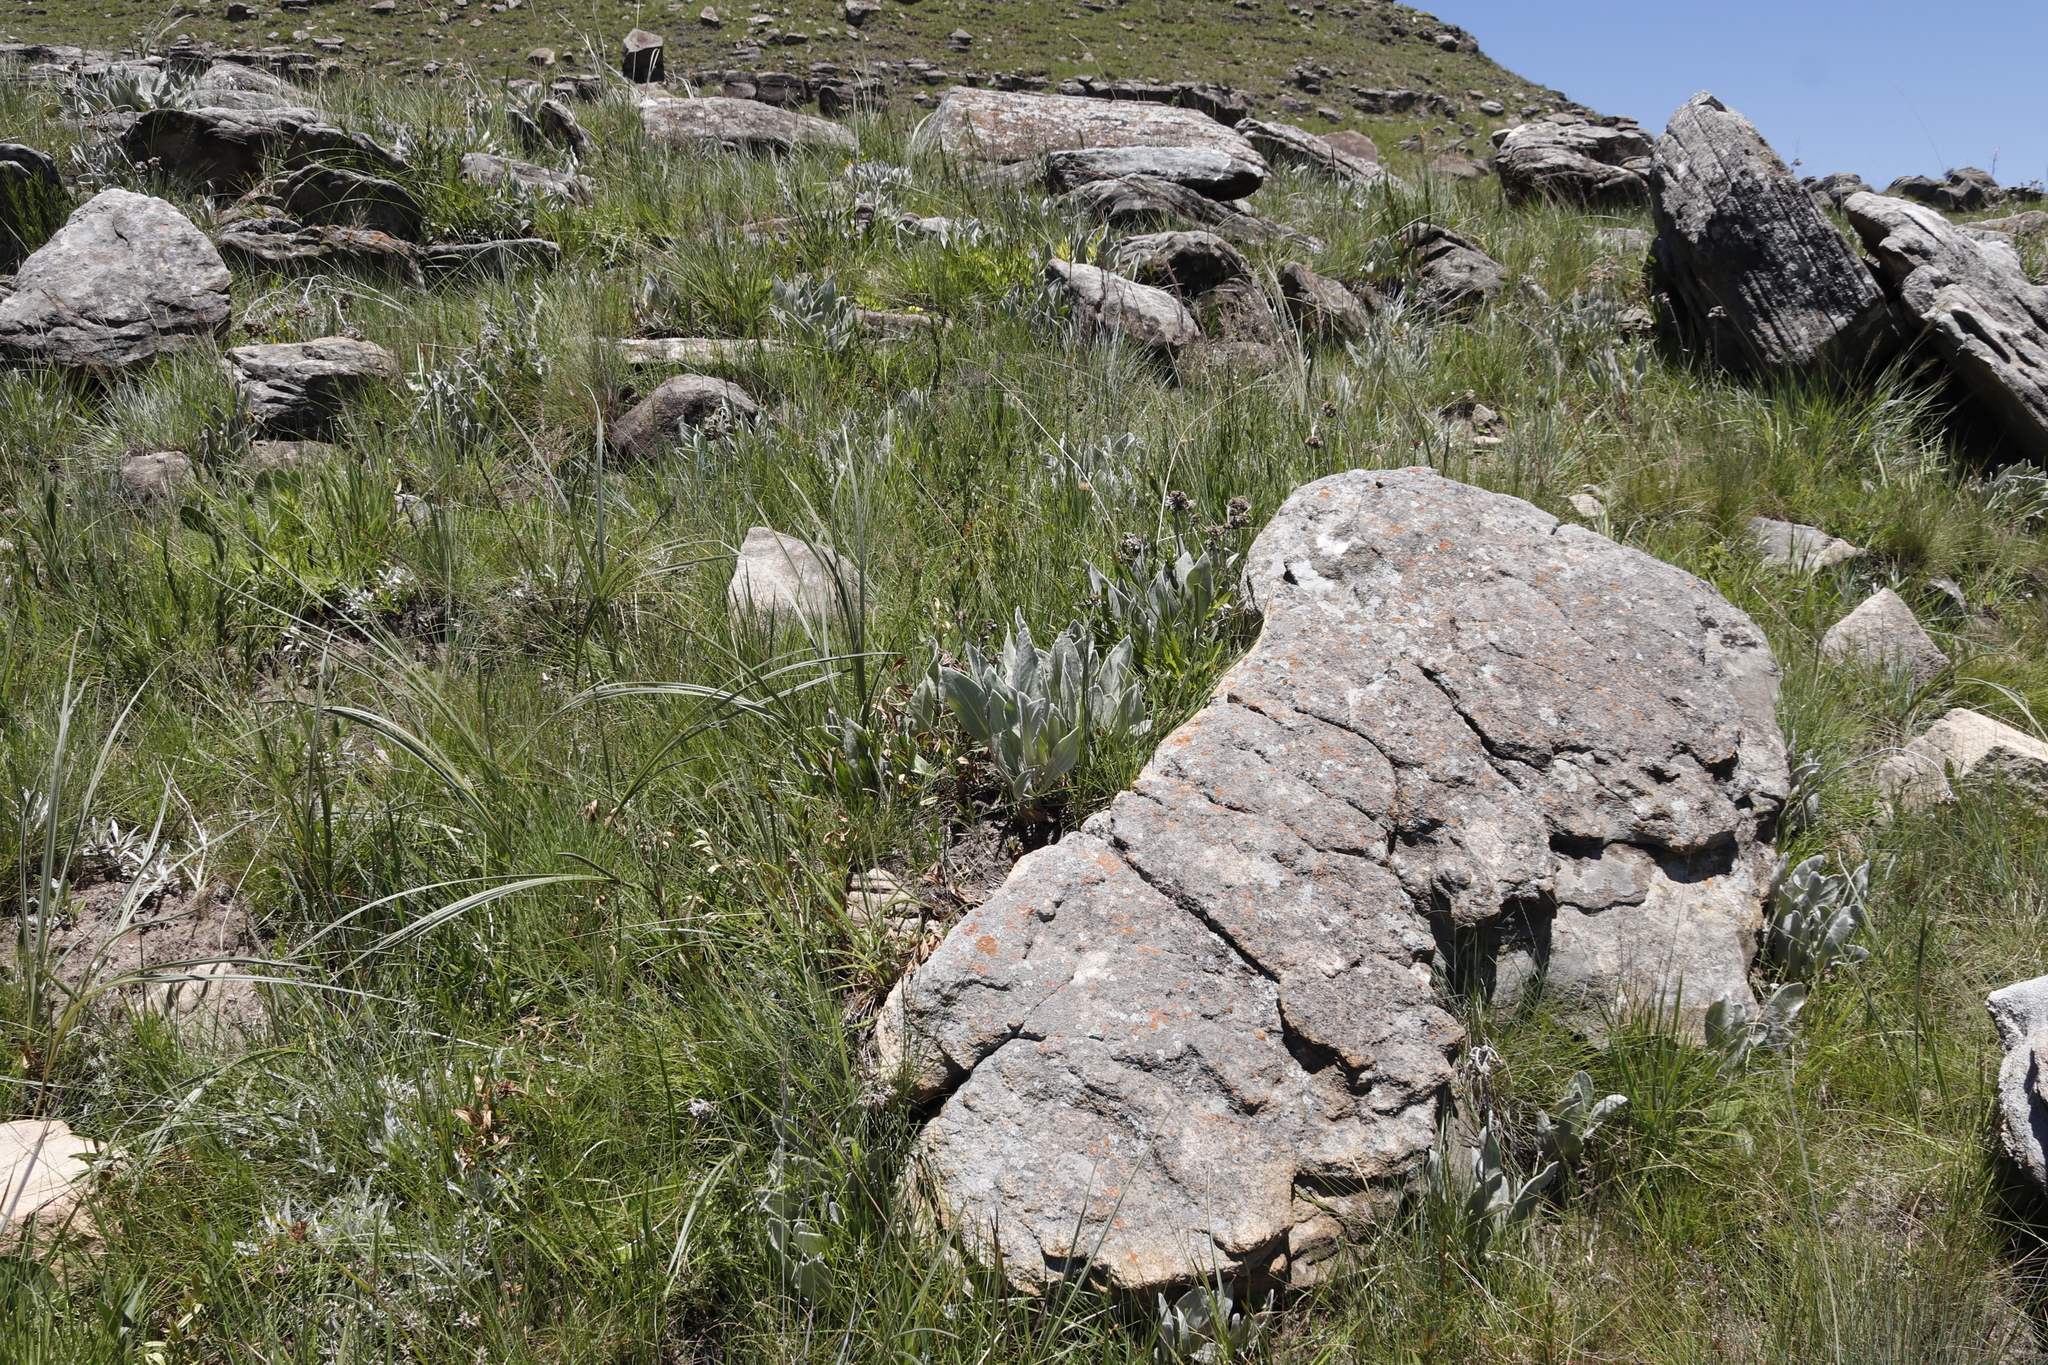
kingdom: Plantae
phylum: Tracheophyta
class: Magnoliopsida
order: Asterales
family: Asteraceae
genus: Helichrysum
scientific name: Helichrysum acutatum
